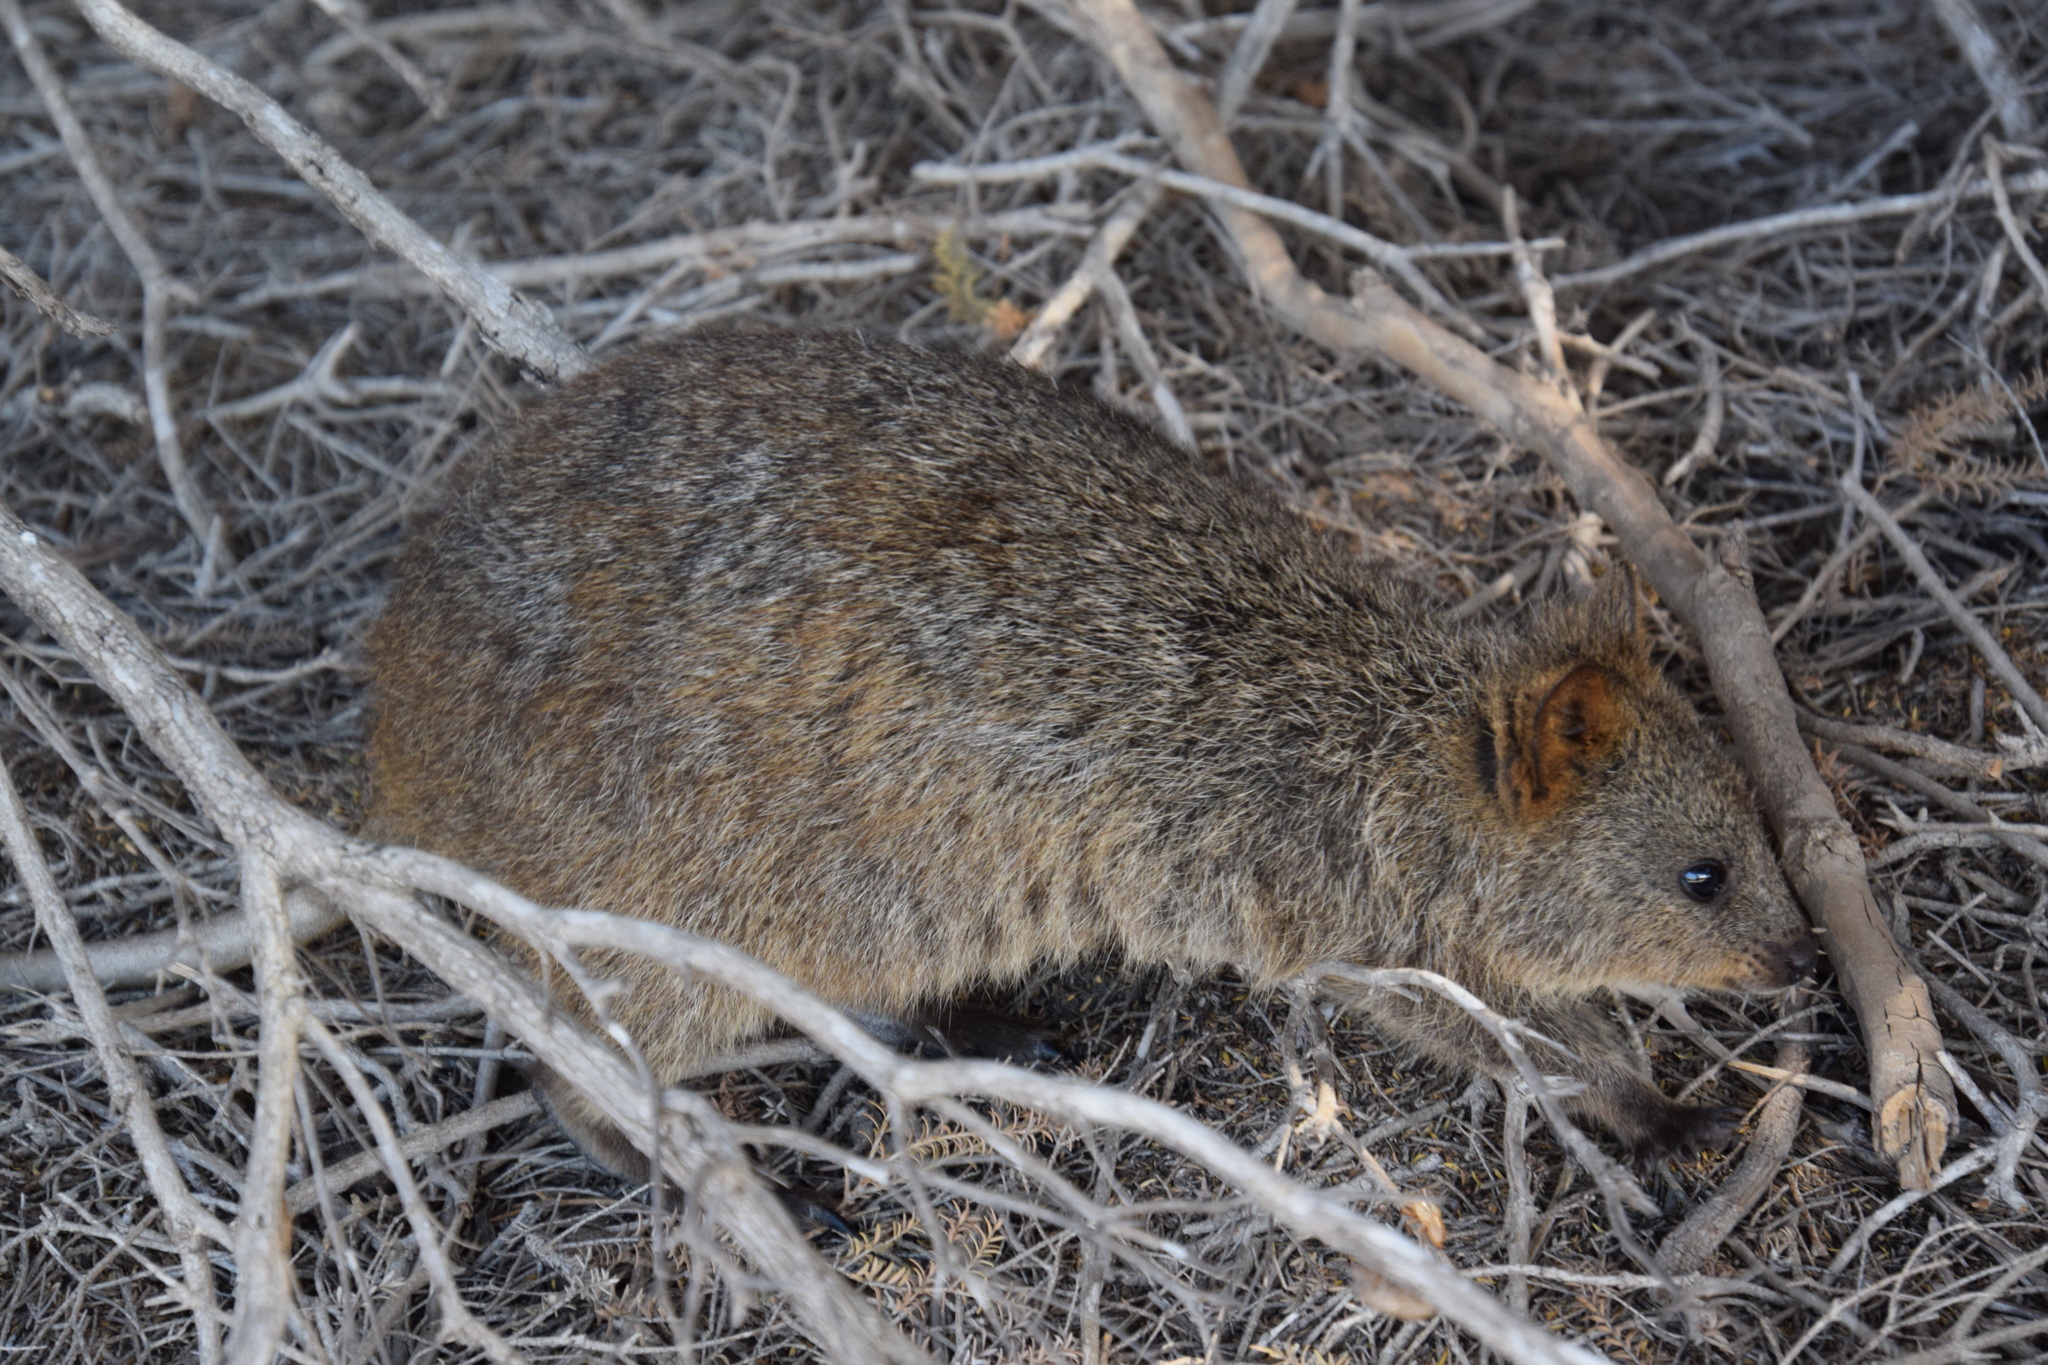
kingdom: Animalia
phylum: Chordata
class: Mammalia
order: Diprotodontia
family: Macropodidae
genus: Setonix
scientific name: Setonix brachyurus
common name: Quokka
